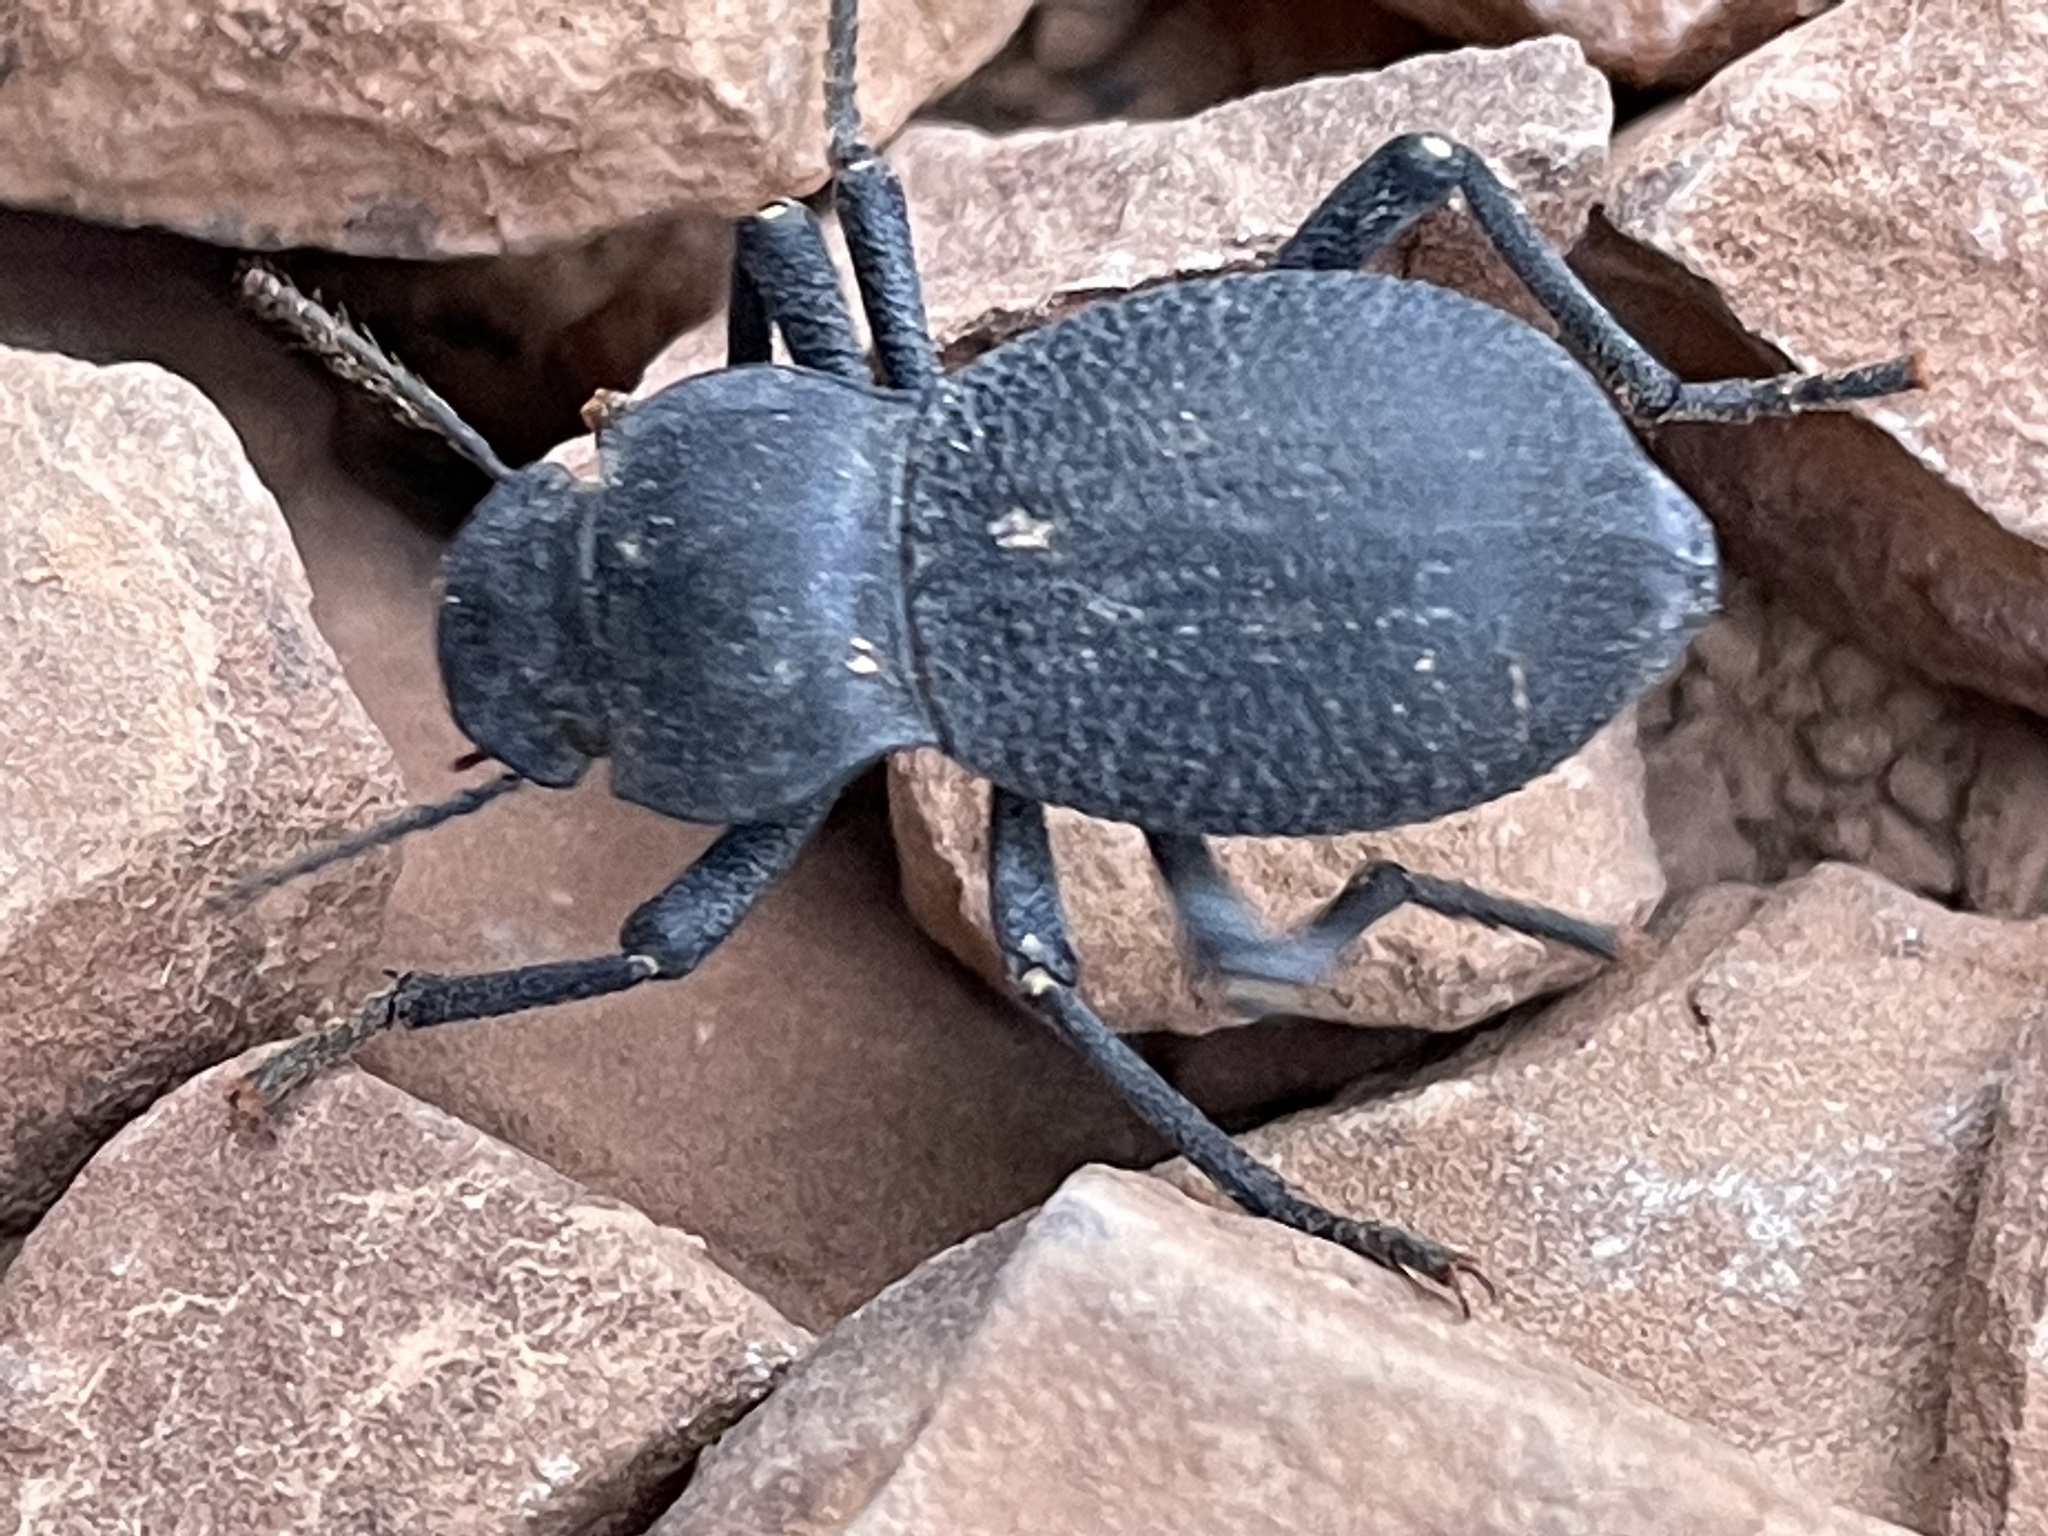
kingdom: Animalia
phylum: Arthropoda
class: Insecta
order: Coleoptera
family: Tenebrionidae
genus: Schizillus
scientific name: Schizillus laticeps
